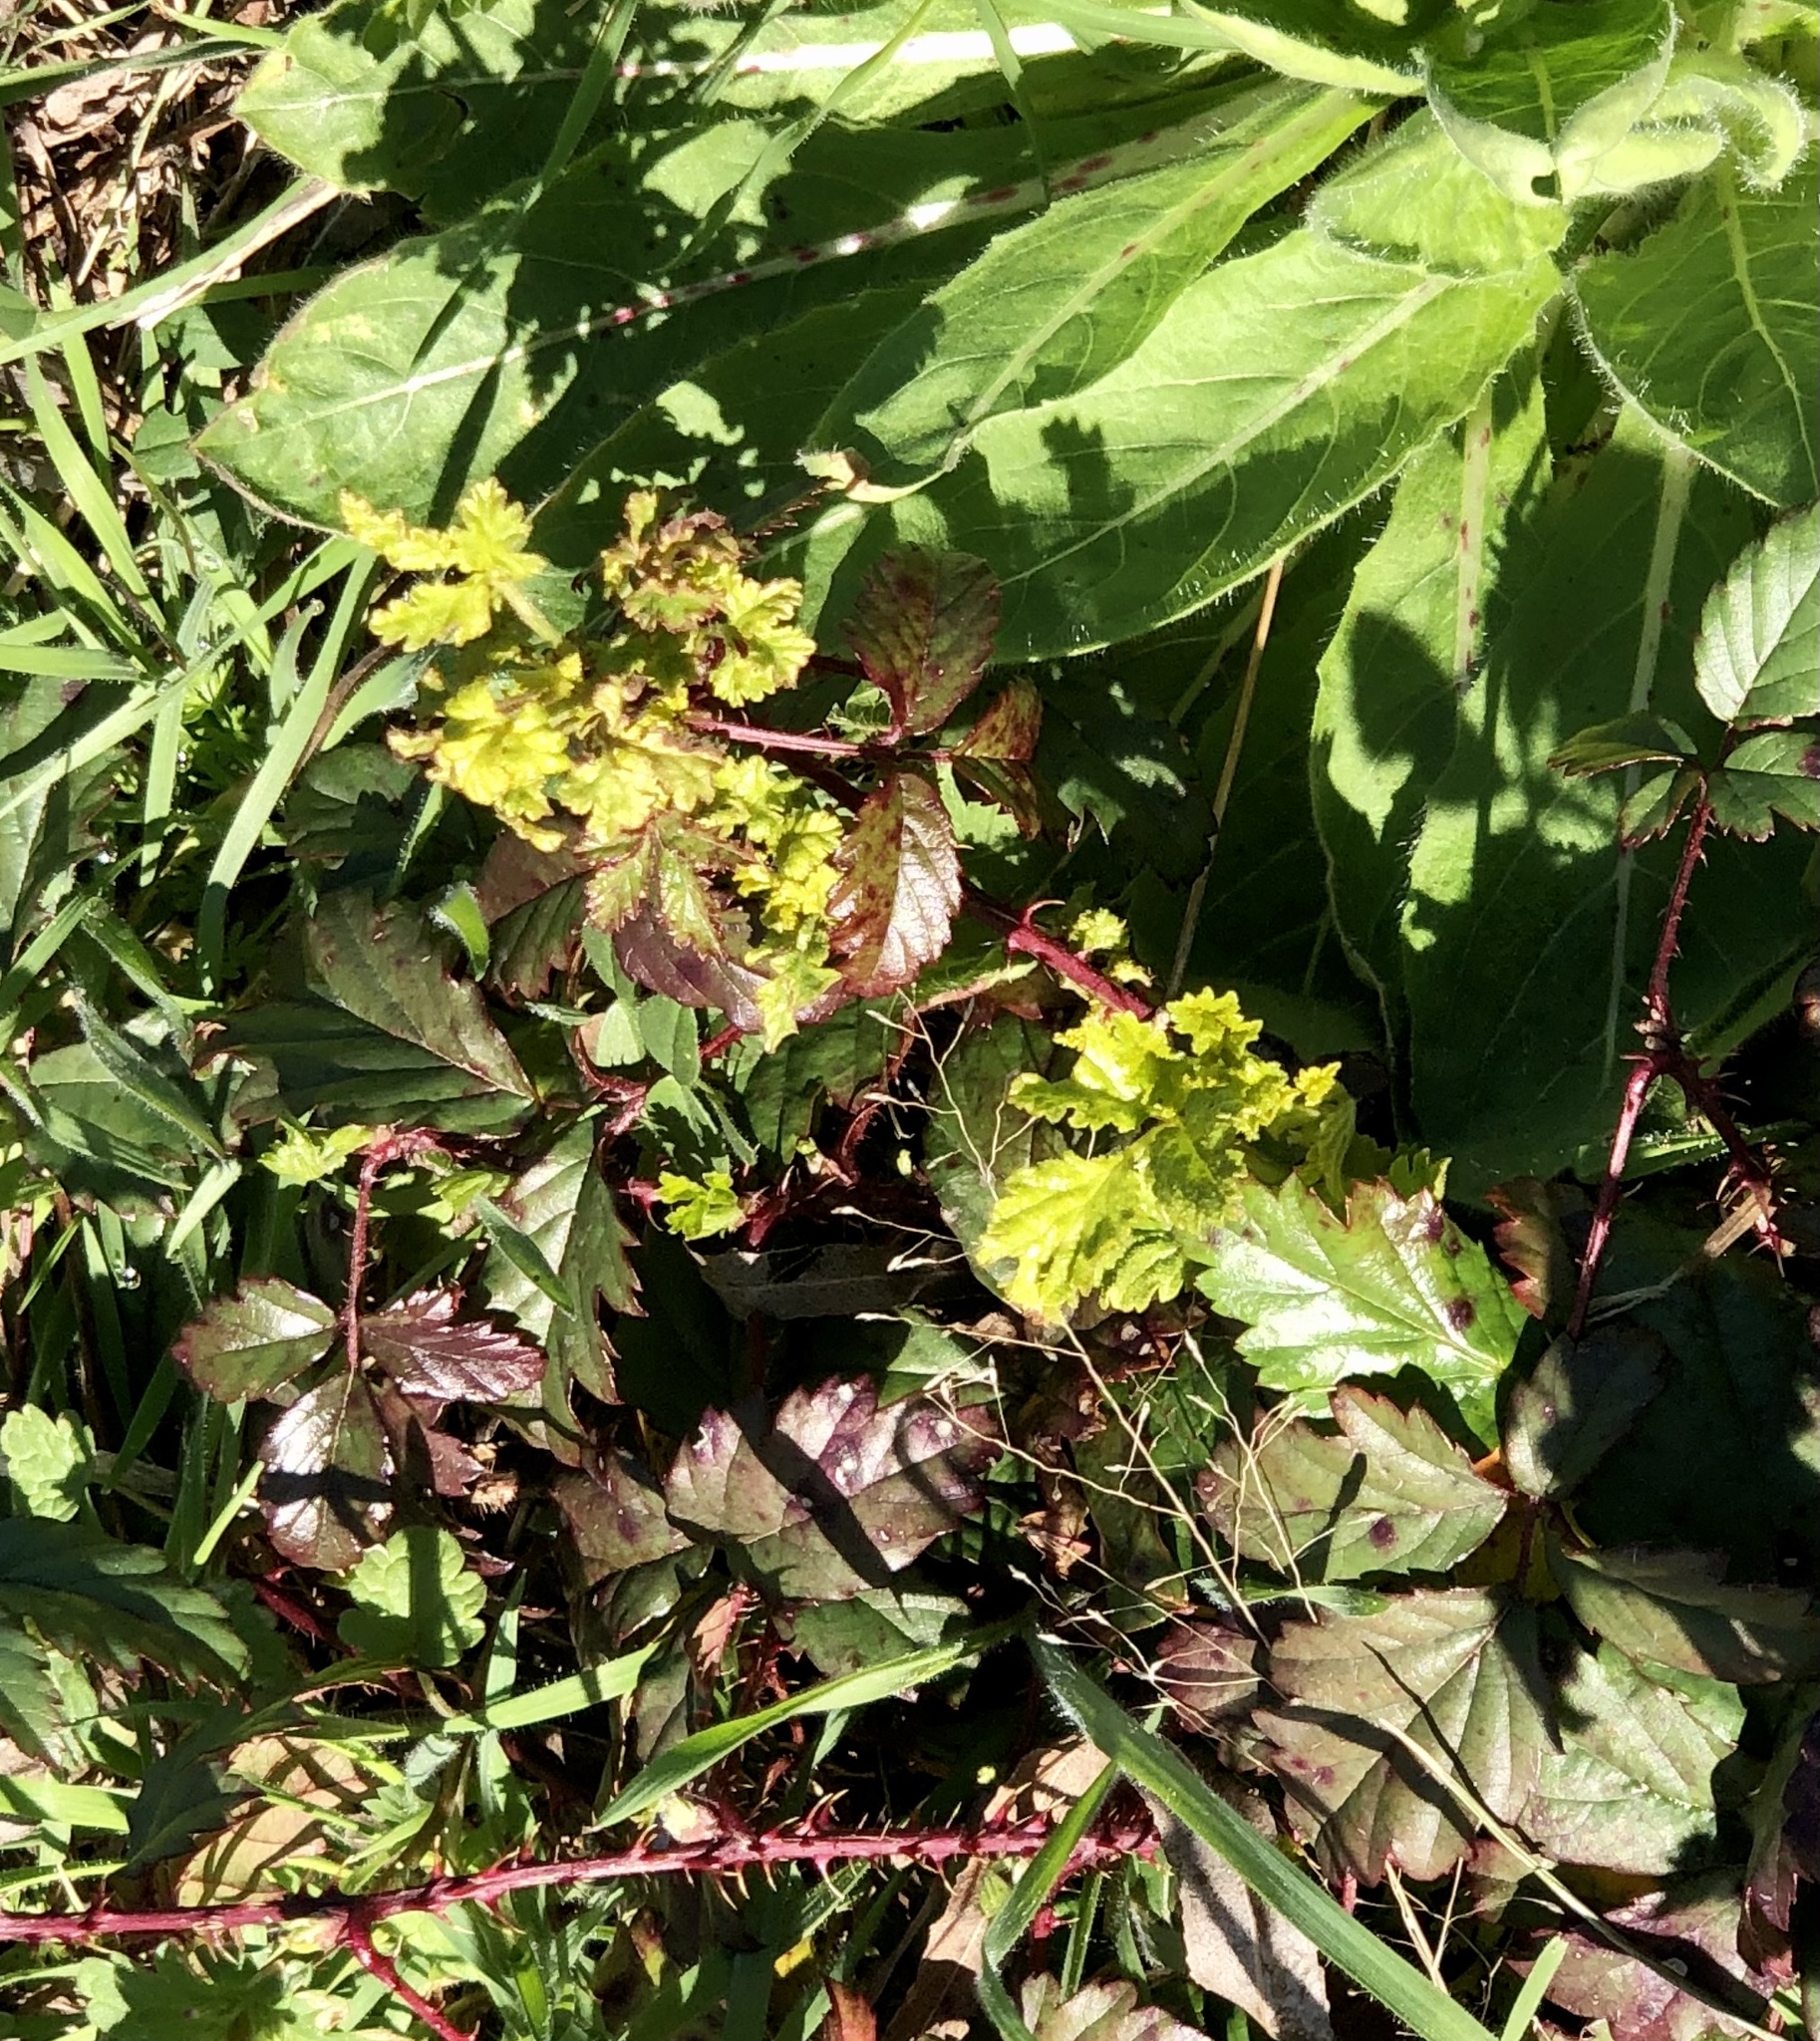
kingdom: Plantae
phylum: Tracheophyta
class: Magnoliopsida
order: Rosales
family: Rosaceae
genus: Rubus
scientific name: Rubus trivialis
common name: Southern dewberry
